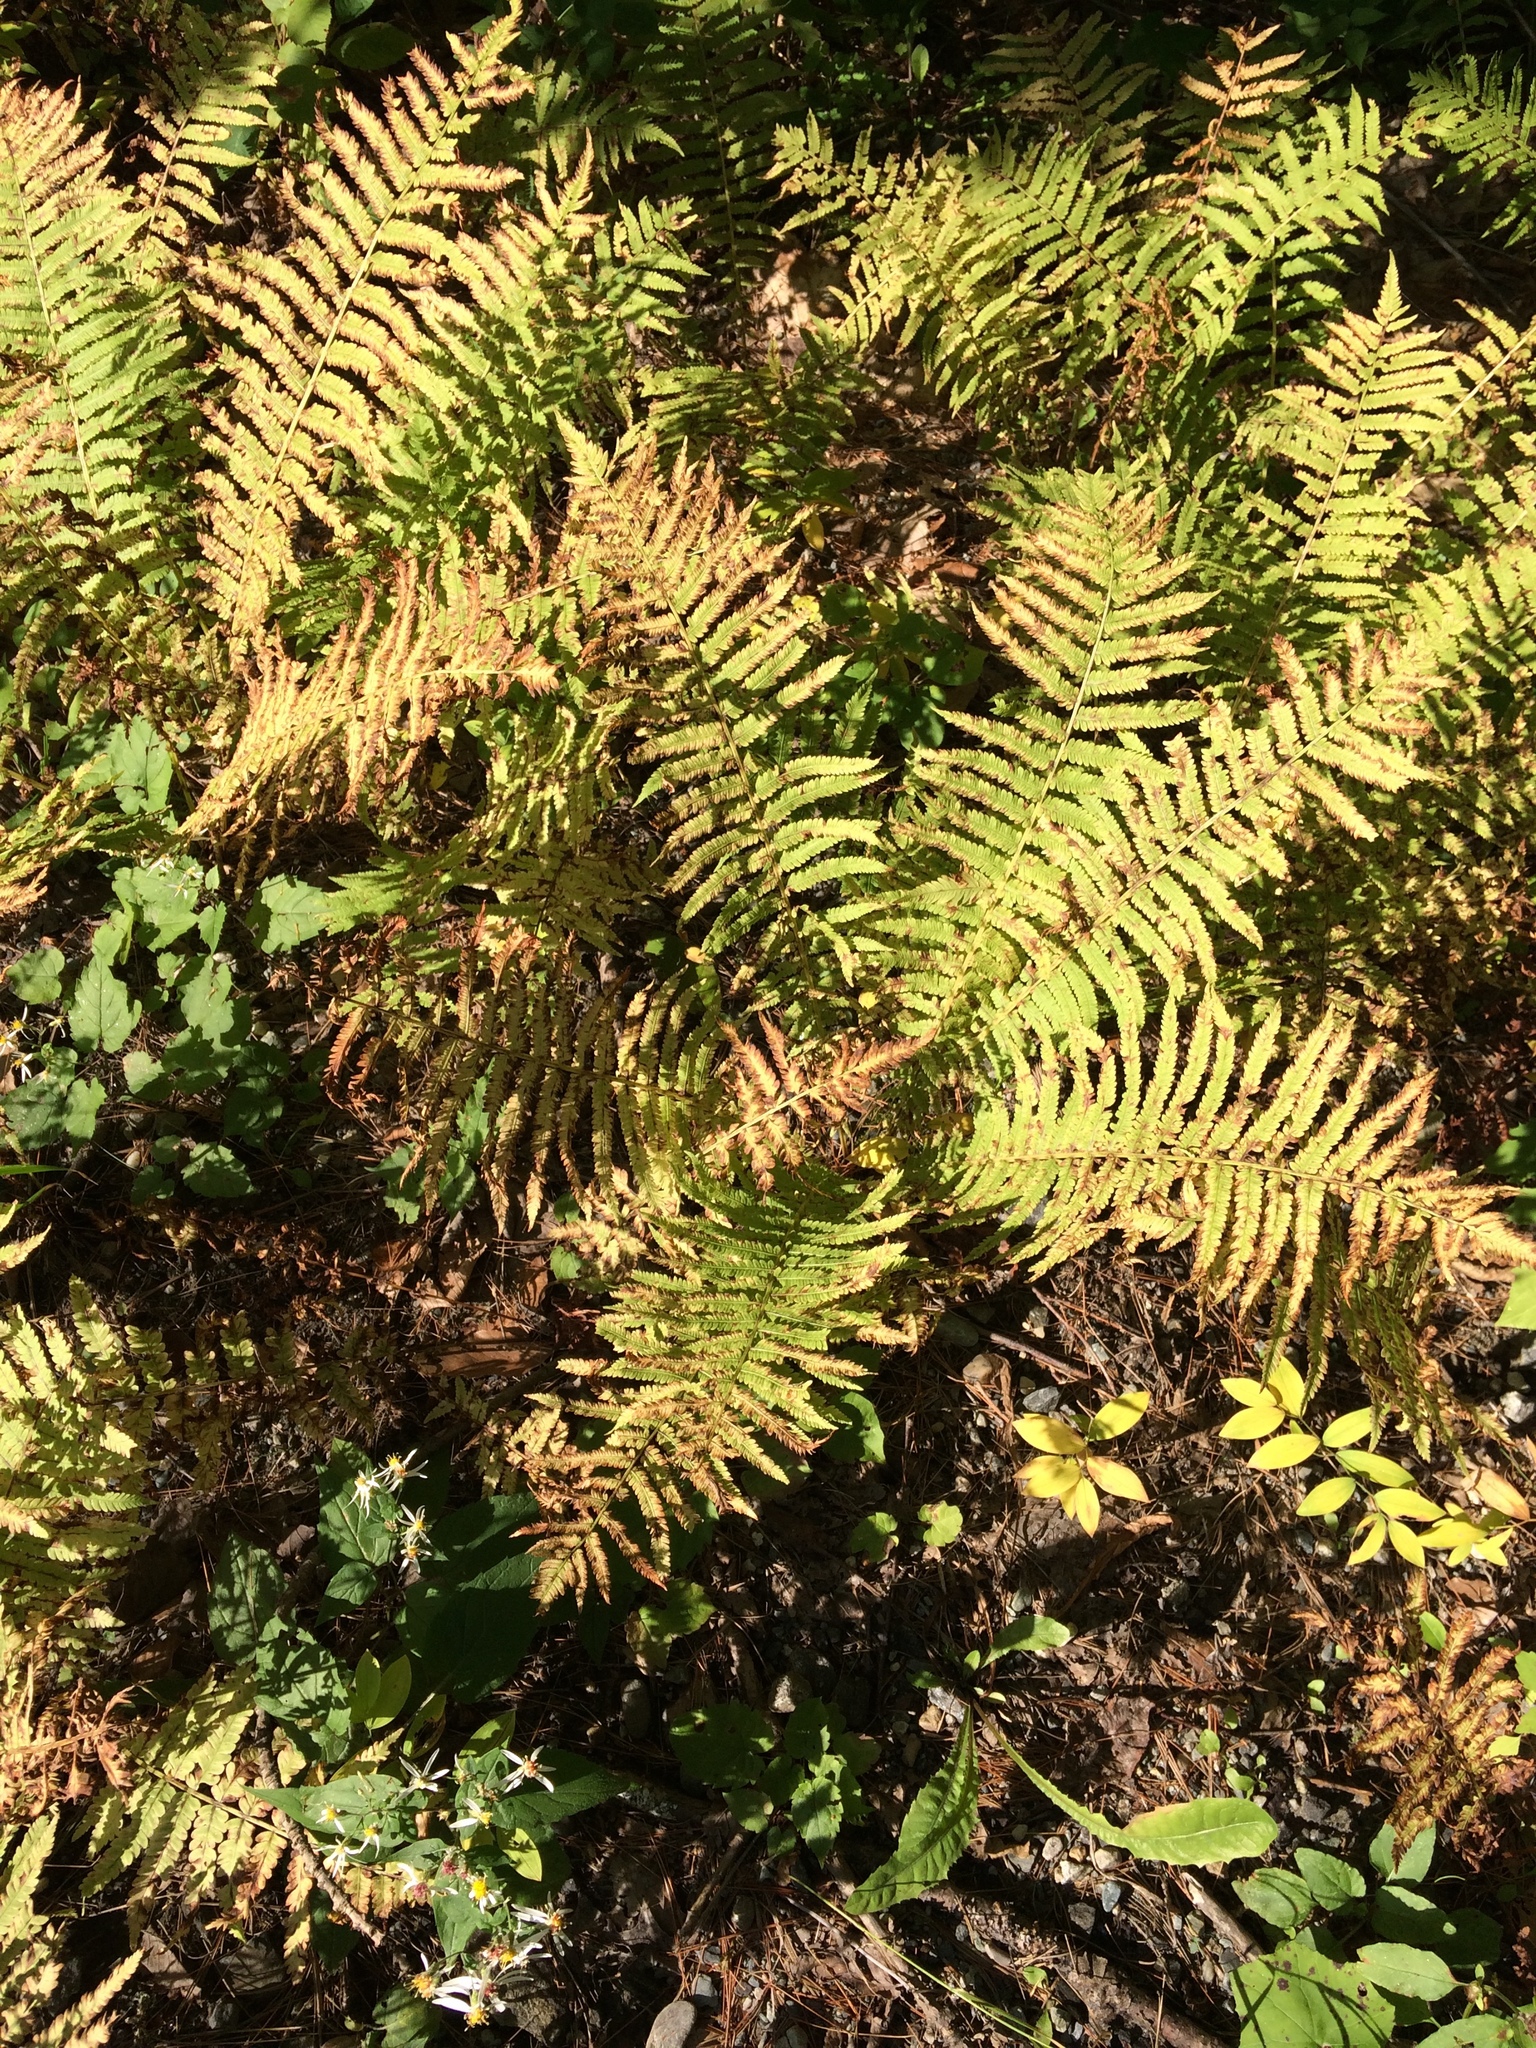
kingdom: Plantae
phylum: Tracheophyta
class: Polypodiopsida
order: Polypodiales
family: Onocleaceae
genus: Matteuccia
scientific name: Matteuccia struthiopteris
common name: Ostrich fern
